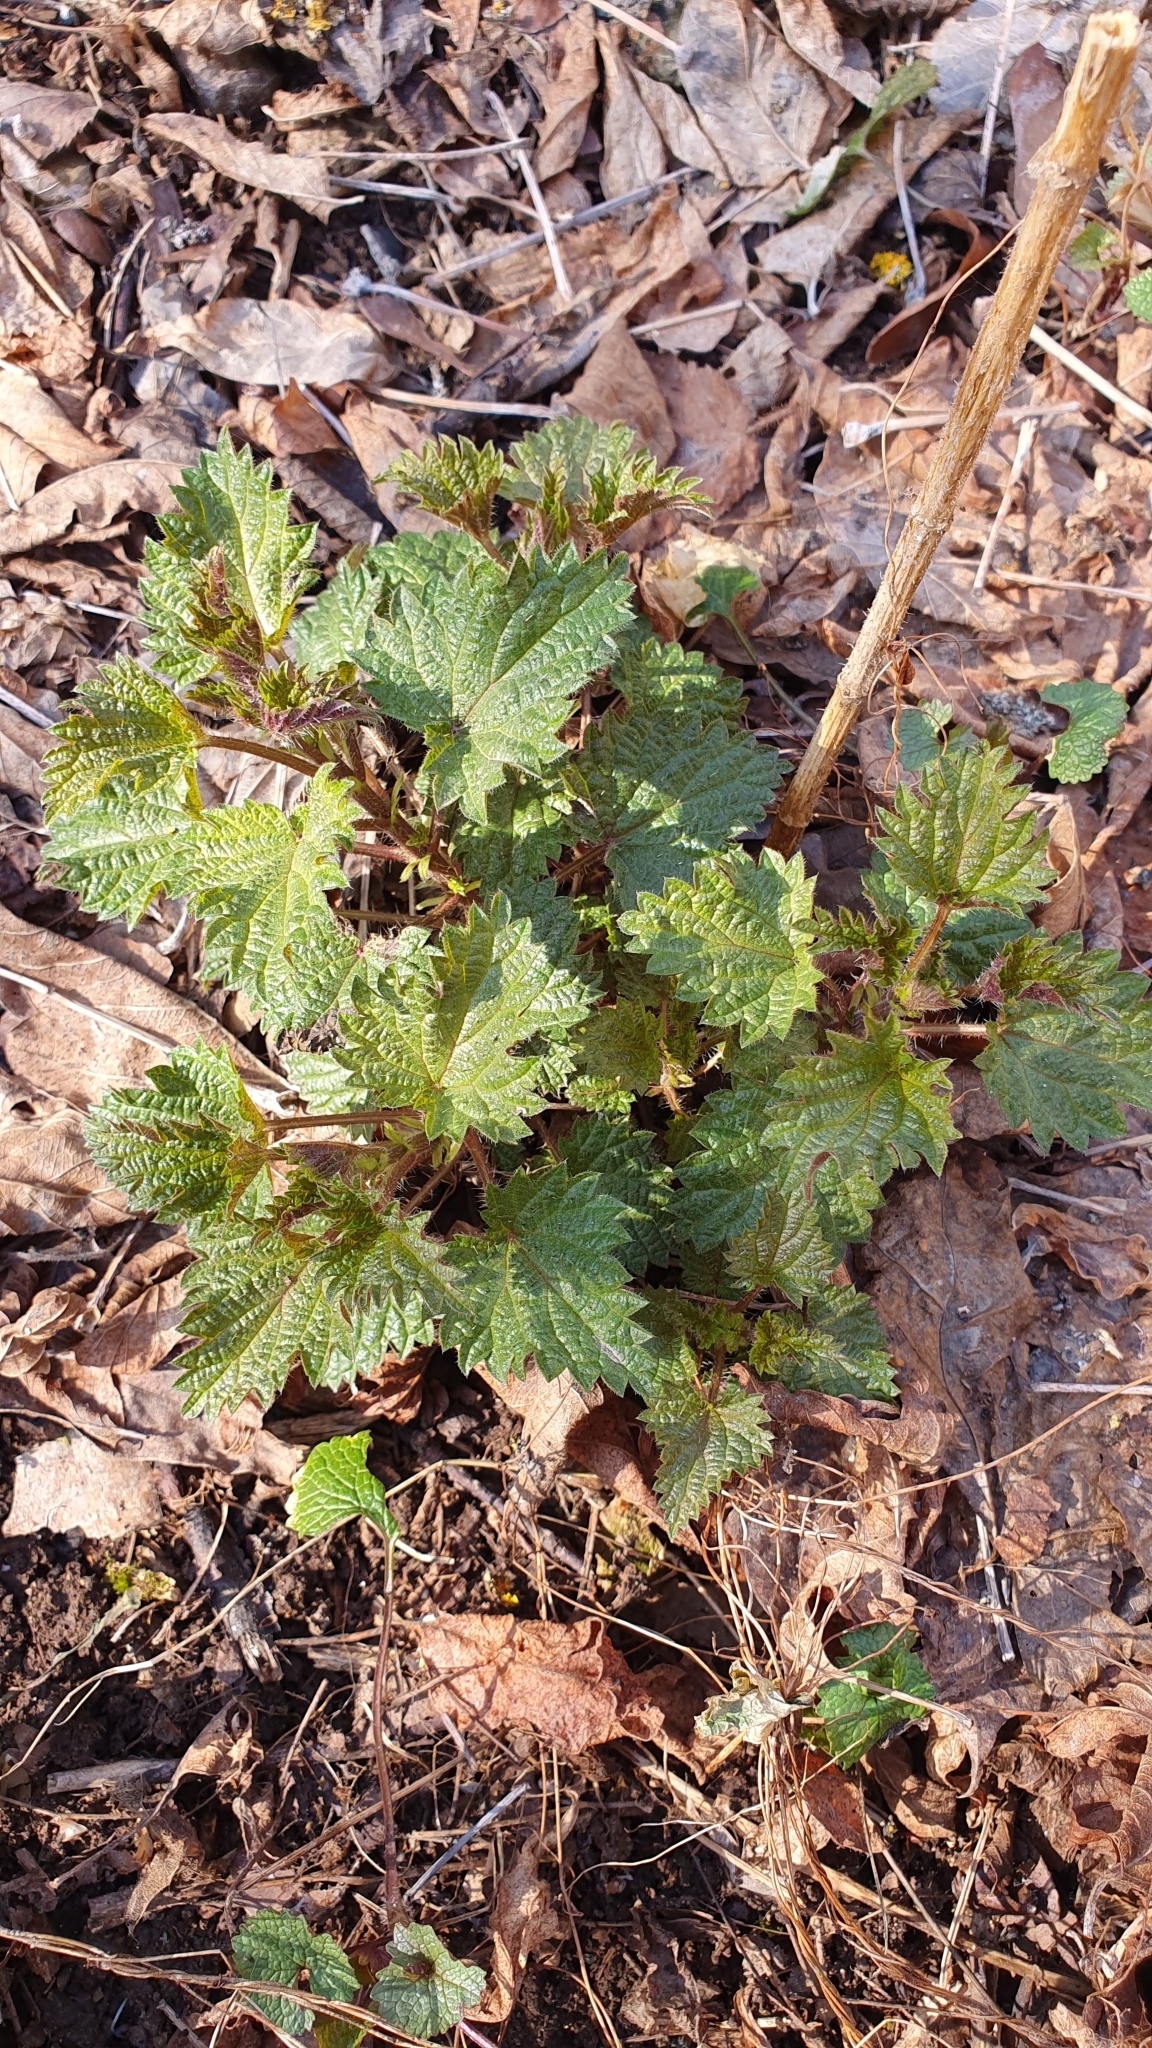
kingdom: Plantae
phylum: Tracheophyta
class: Magnoliopsida
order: Rosales
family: Urticaceae
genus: Urtica
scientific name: Urtica dioica
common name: Common nettle
